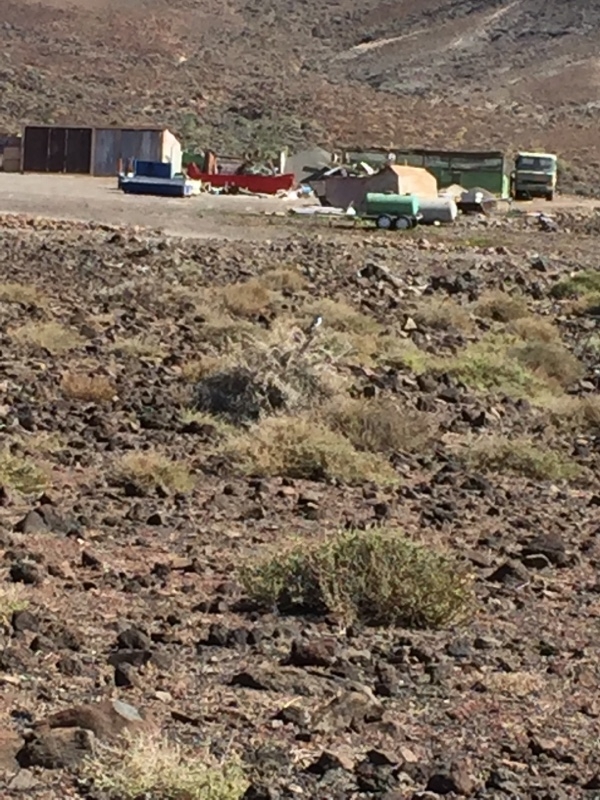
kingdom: Animalia
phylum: Chordata
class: Aves
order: Passeriformes
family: Laniidae
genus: Lanius
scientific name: Lanius excubitor
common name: Great grey shrike
